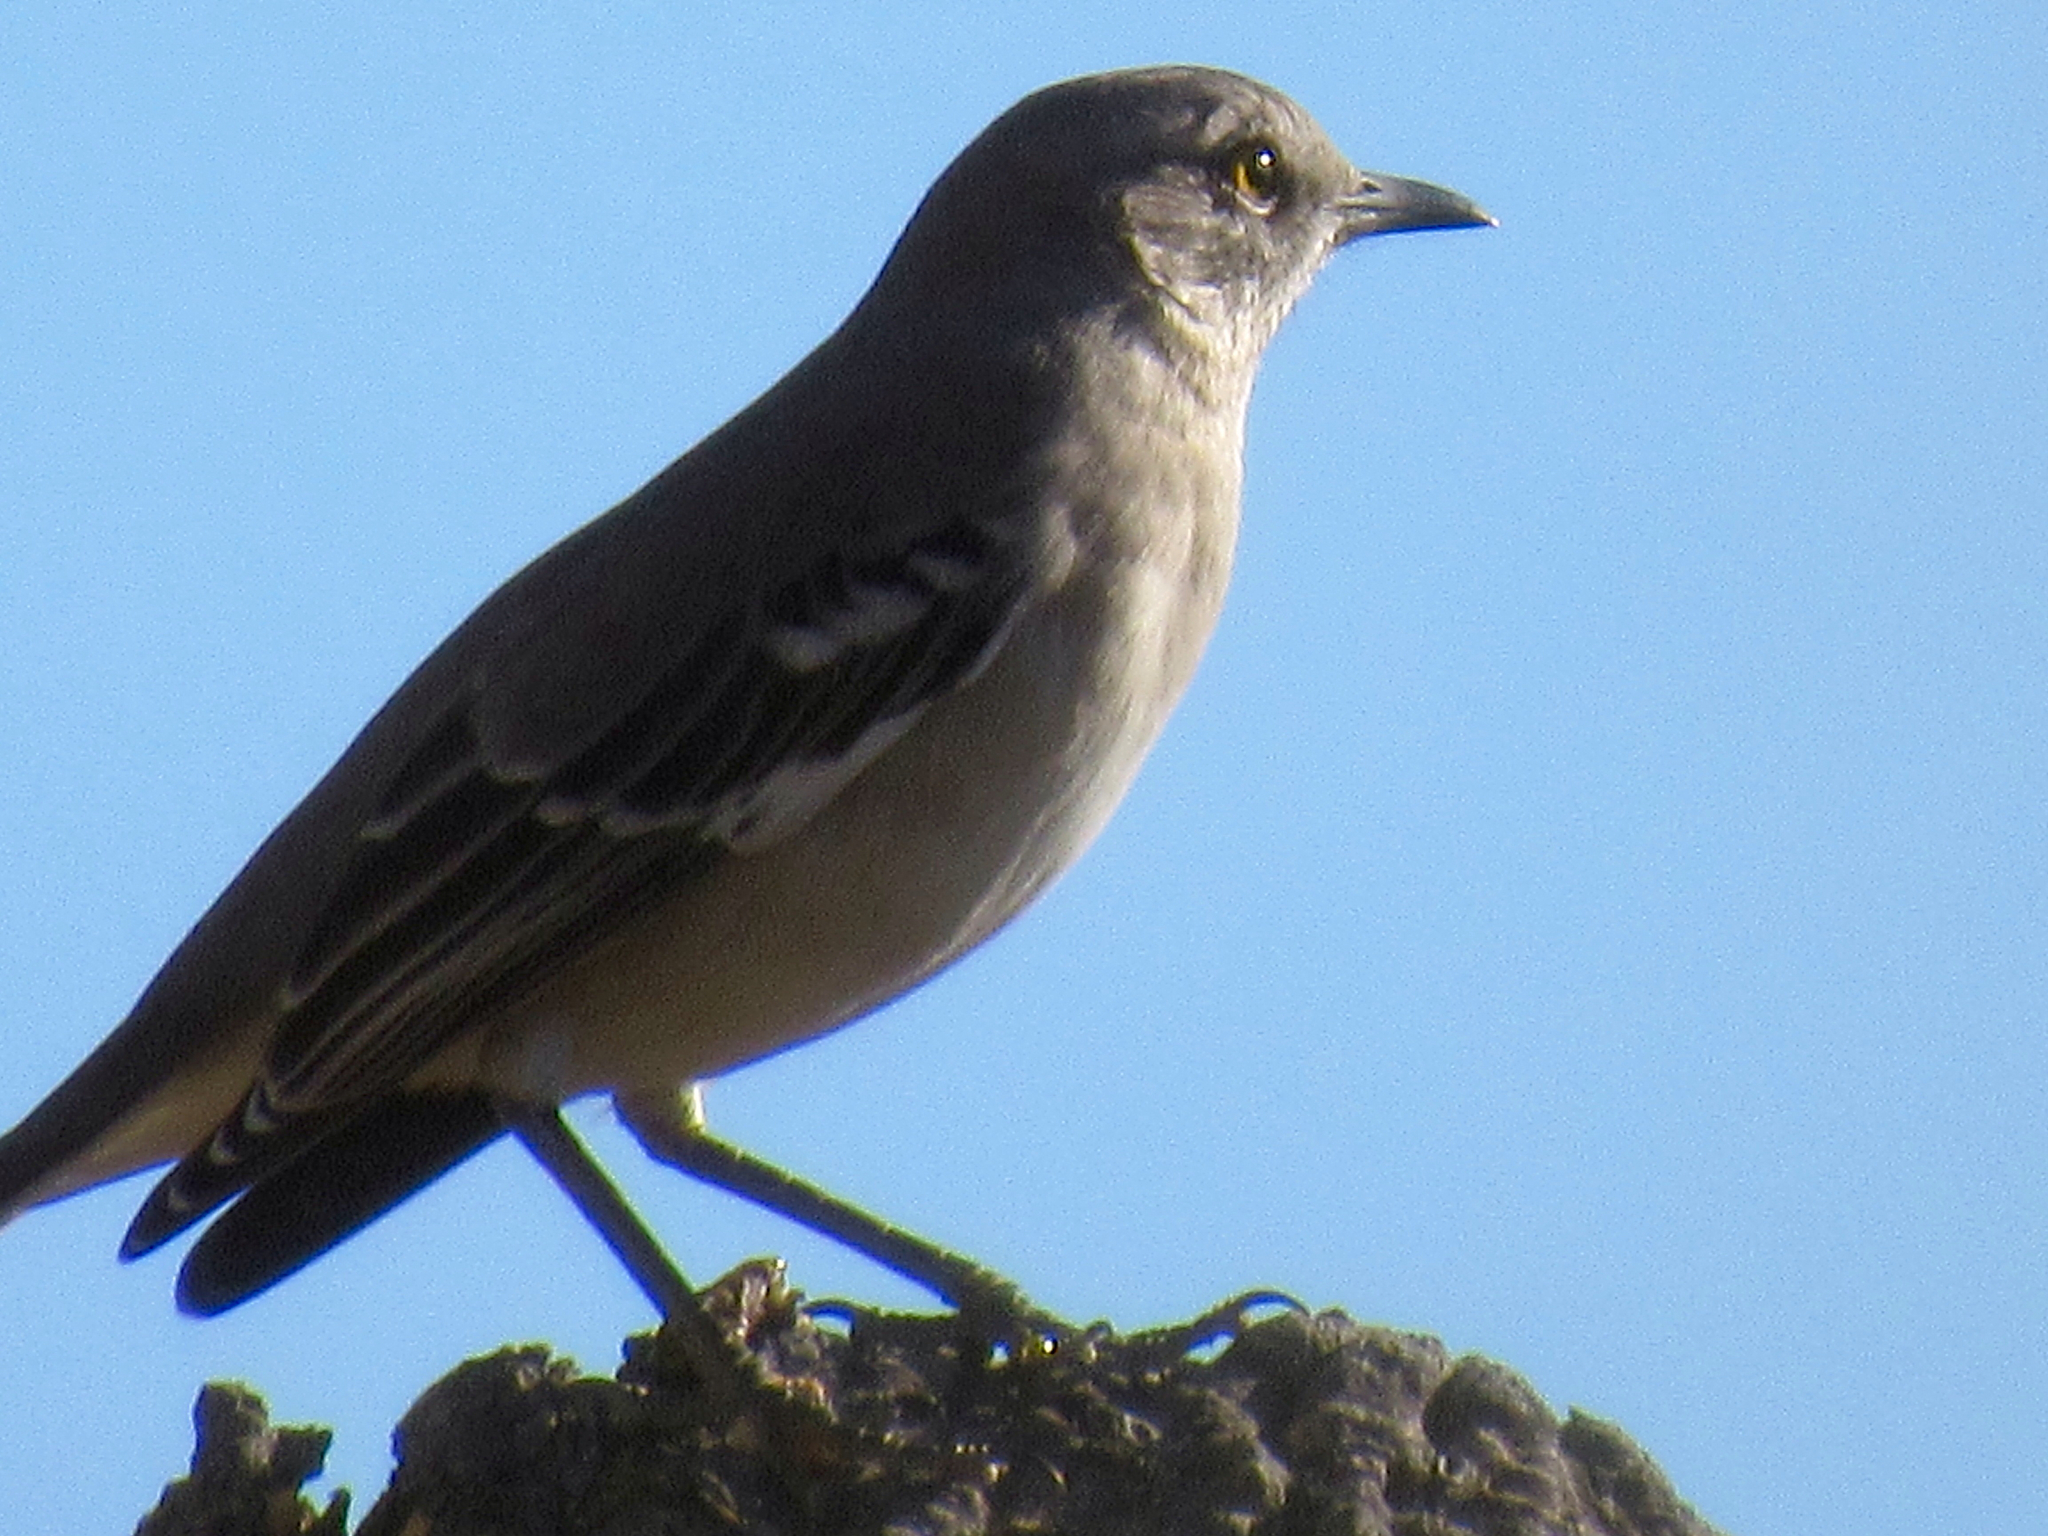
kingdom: Animalia
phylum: Chordata
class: Aves
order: Passeriformes
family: Mimidae
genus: Mimus
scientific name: Mimus polyglottos
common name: Northern mockingbird
